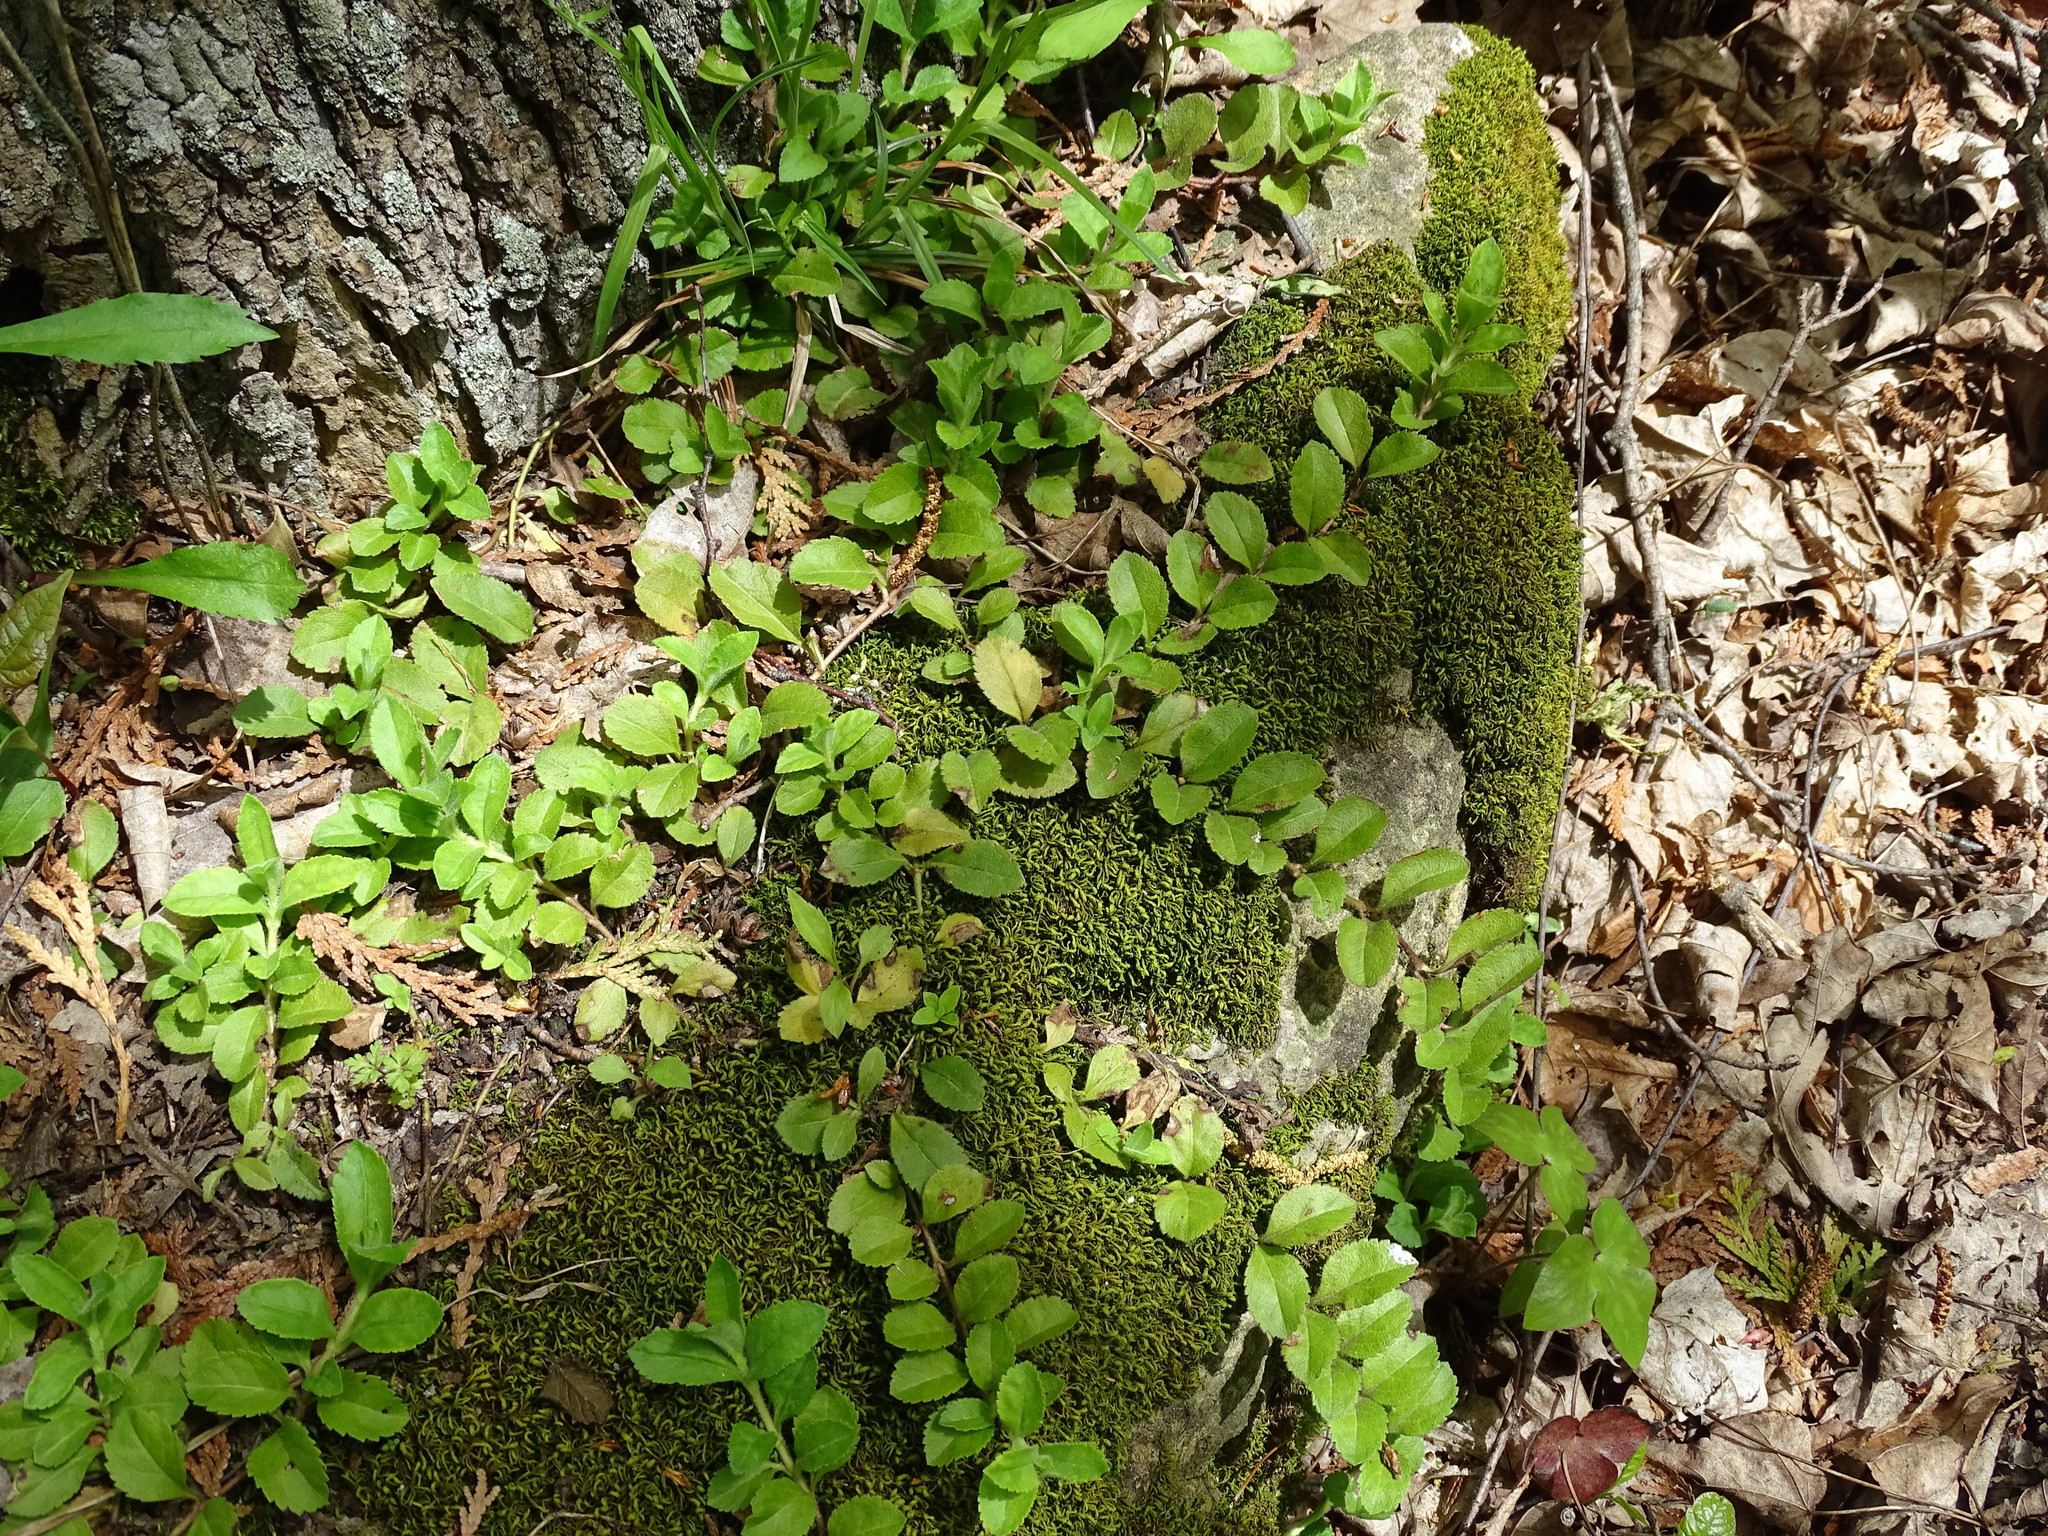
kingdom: Plantae
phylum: Tracheophyta
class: Magnoliopsida
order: Lamiales
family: Plantaginaceae
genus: Veronica
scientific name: Veronica officinalis
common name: Common speedwell
